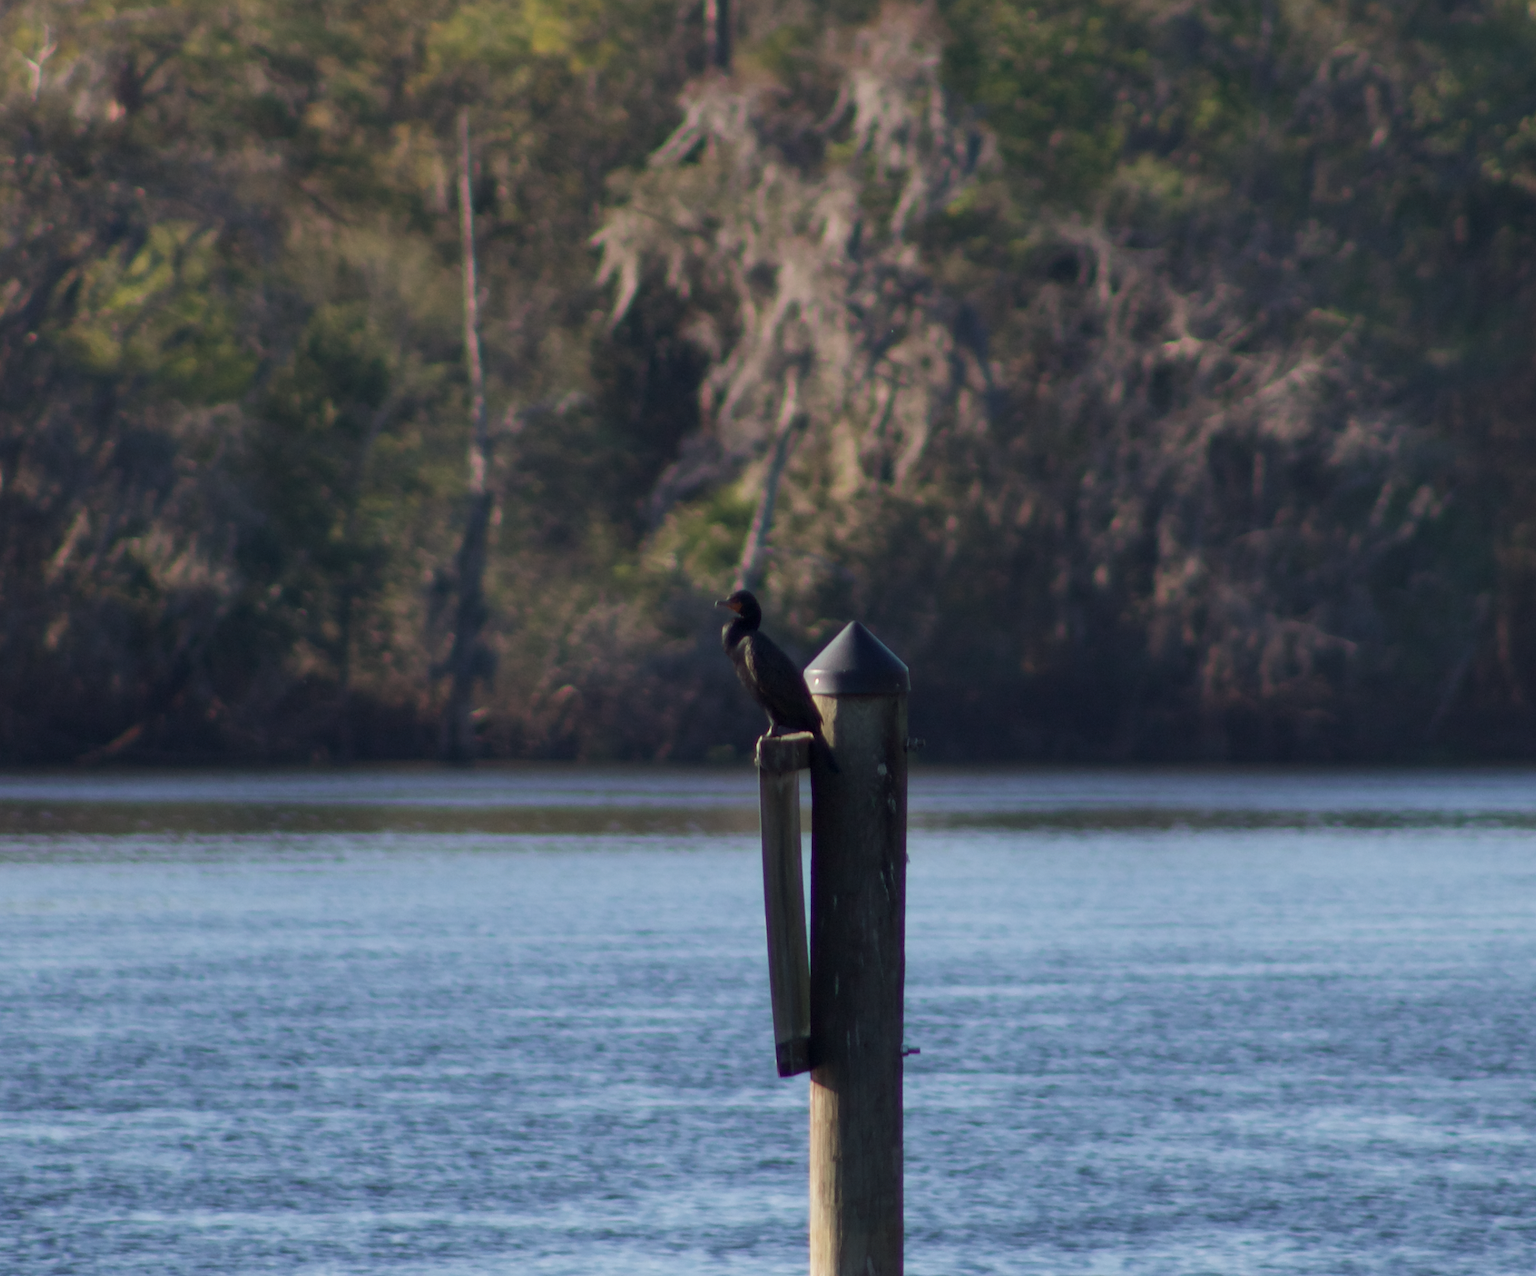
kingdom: Animalia
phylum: Chordata
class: Aves
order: Suliformes
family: Phalacrocoracidae
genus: Phalacrocorax
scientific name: Phalacrocorax auritus
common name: Double-crested cormorant
